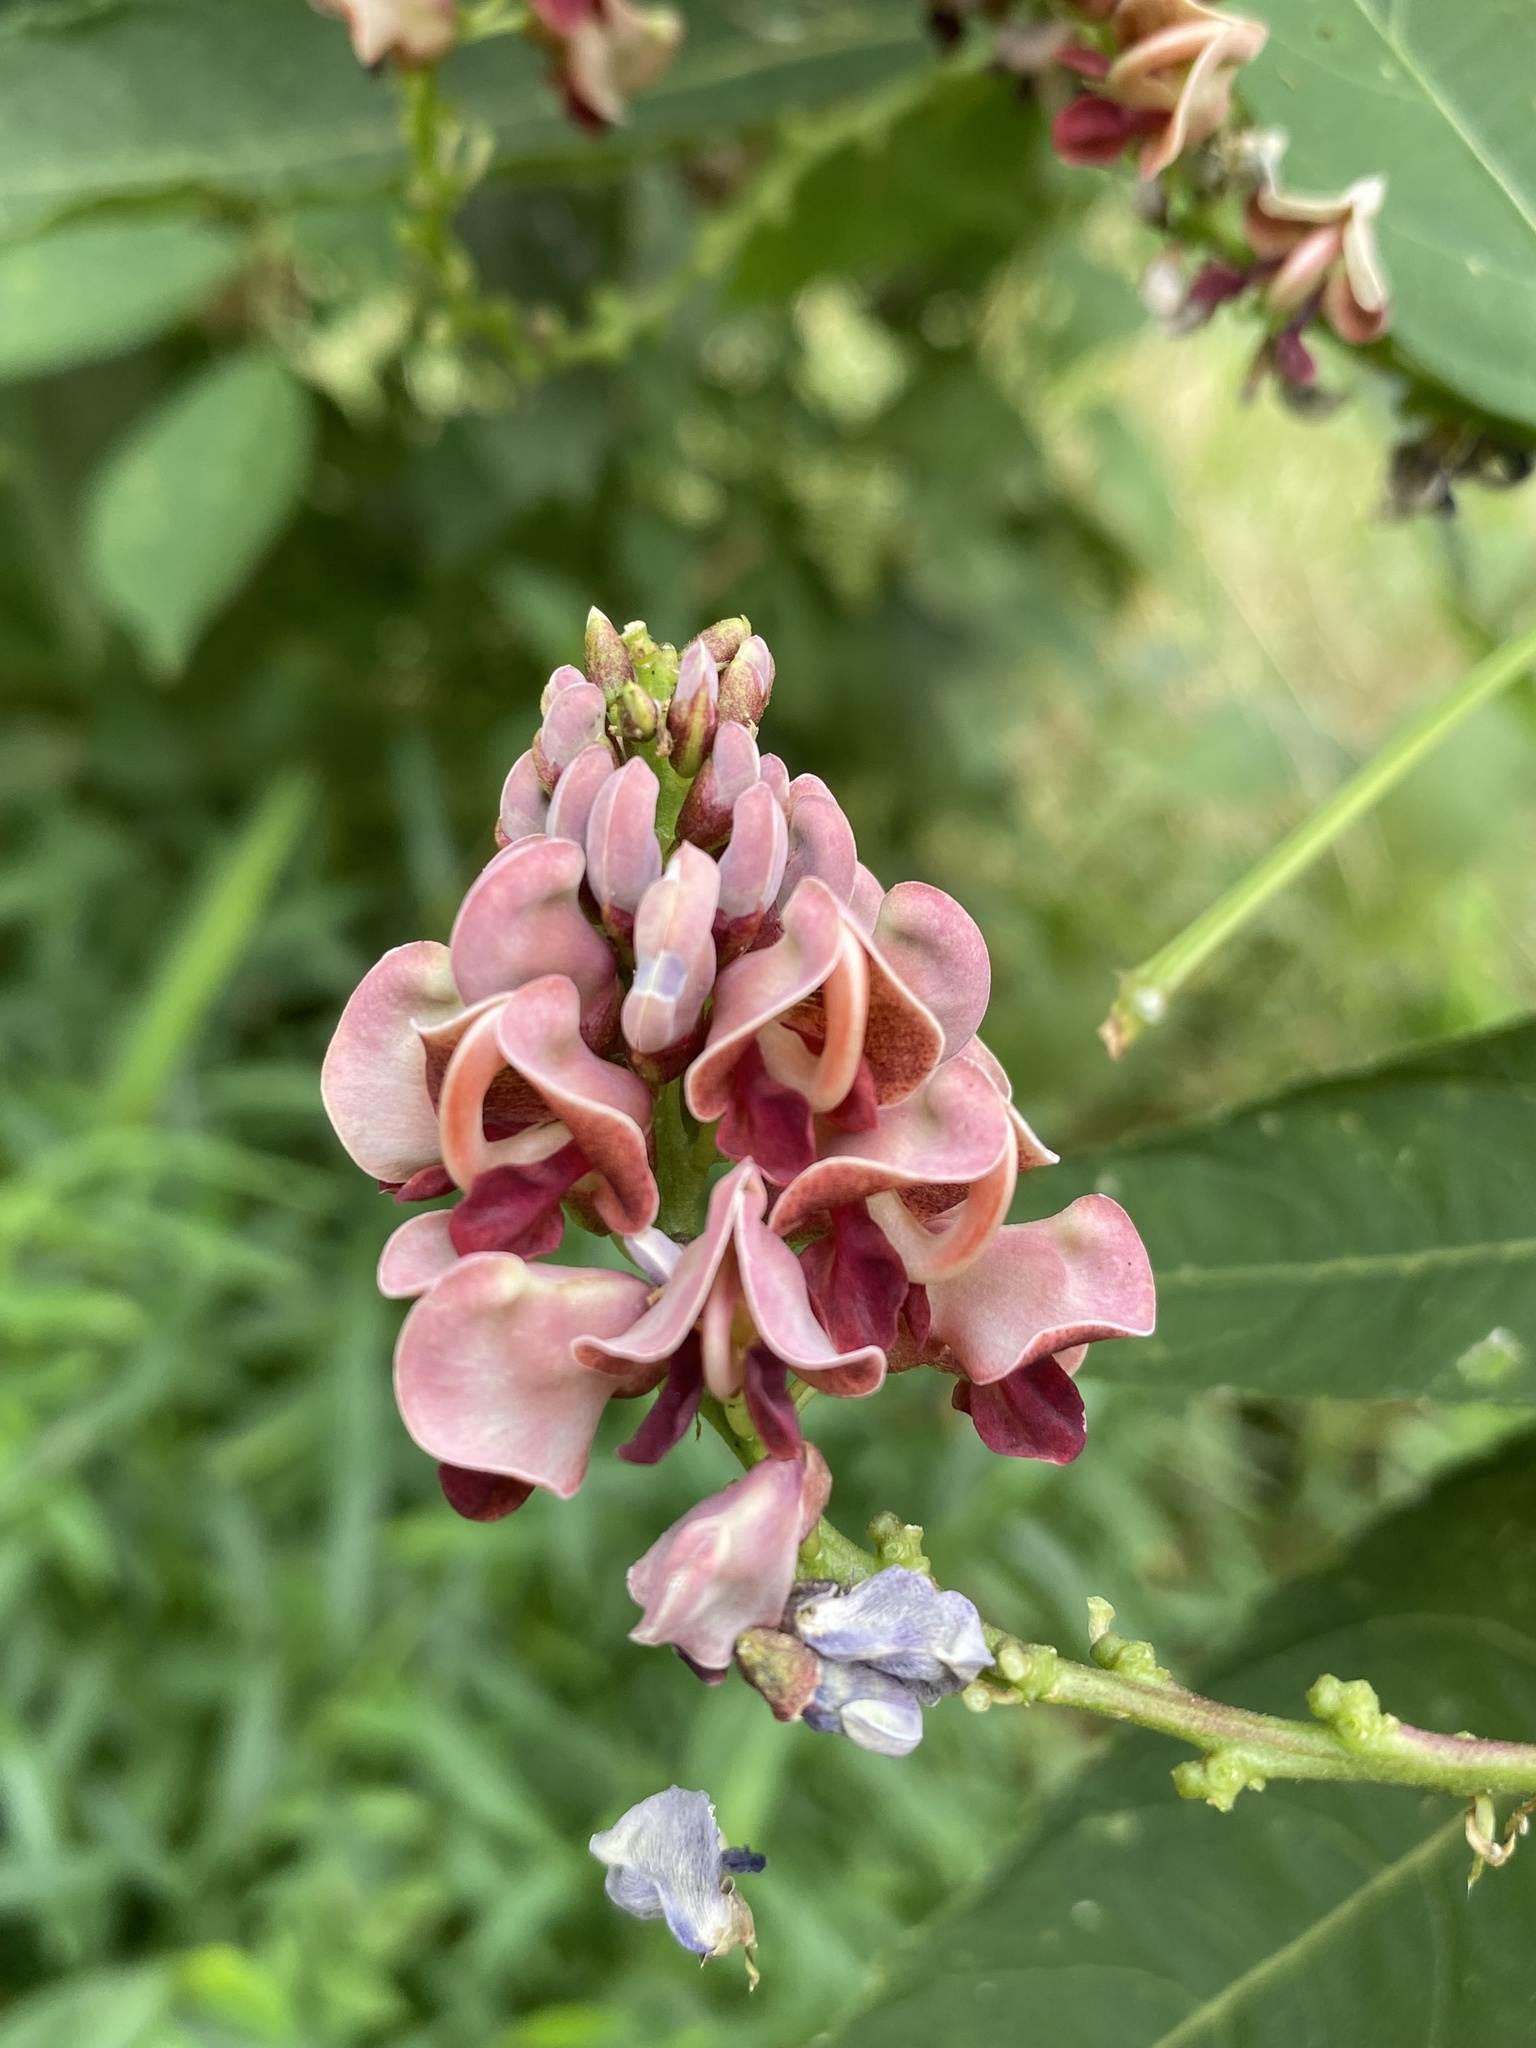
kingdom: Plantae
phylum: Tracheophyta
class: Magnoliopsida
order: Fabales
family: Fabaceae
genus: Apios
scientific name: Apios americana
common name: American potato-bean
